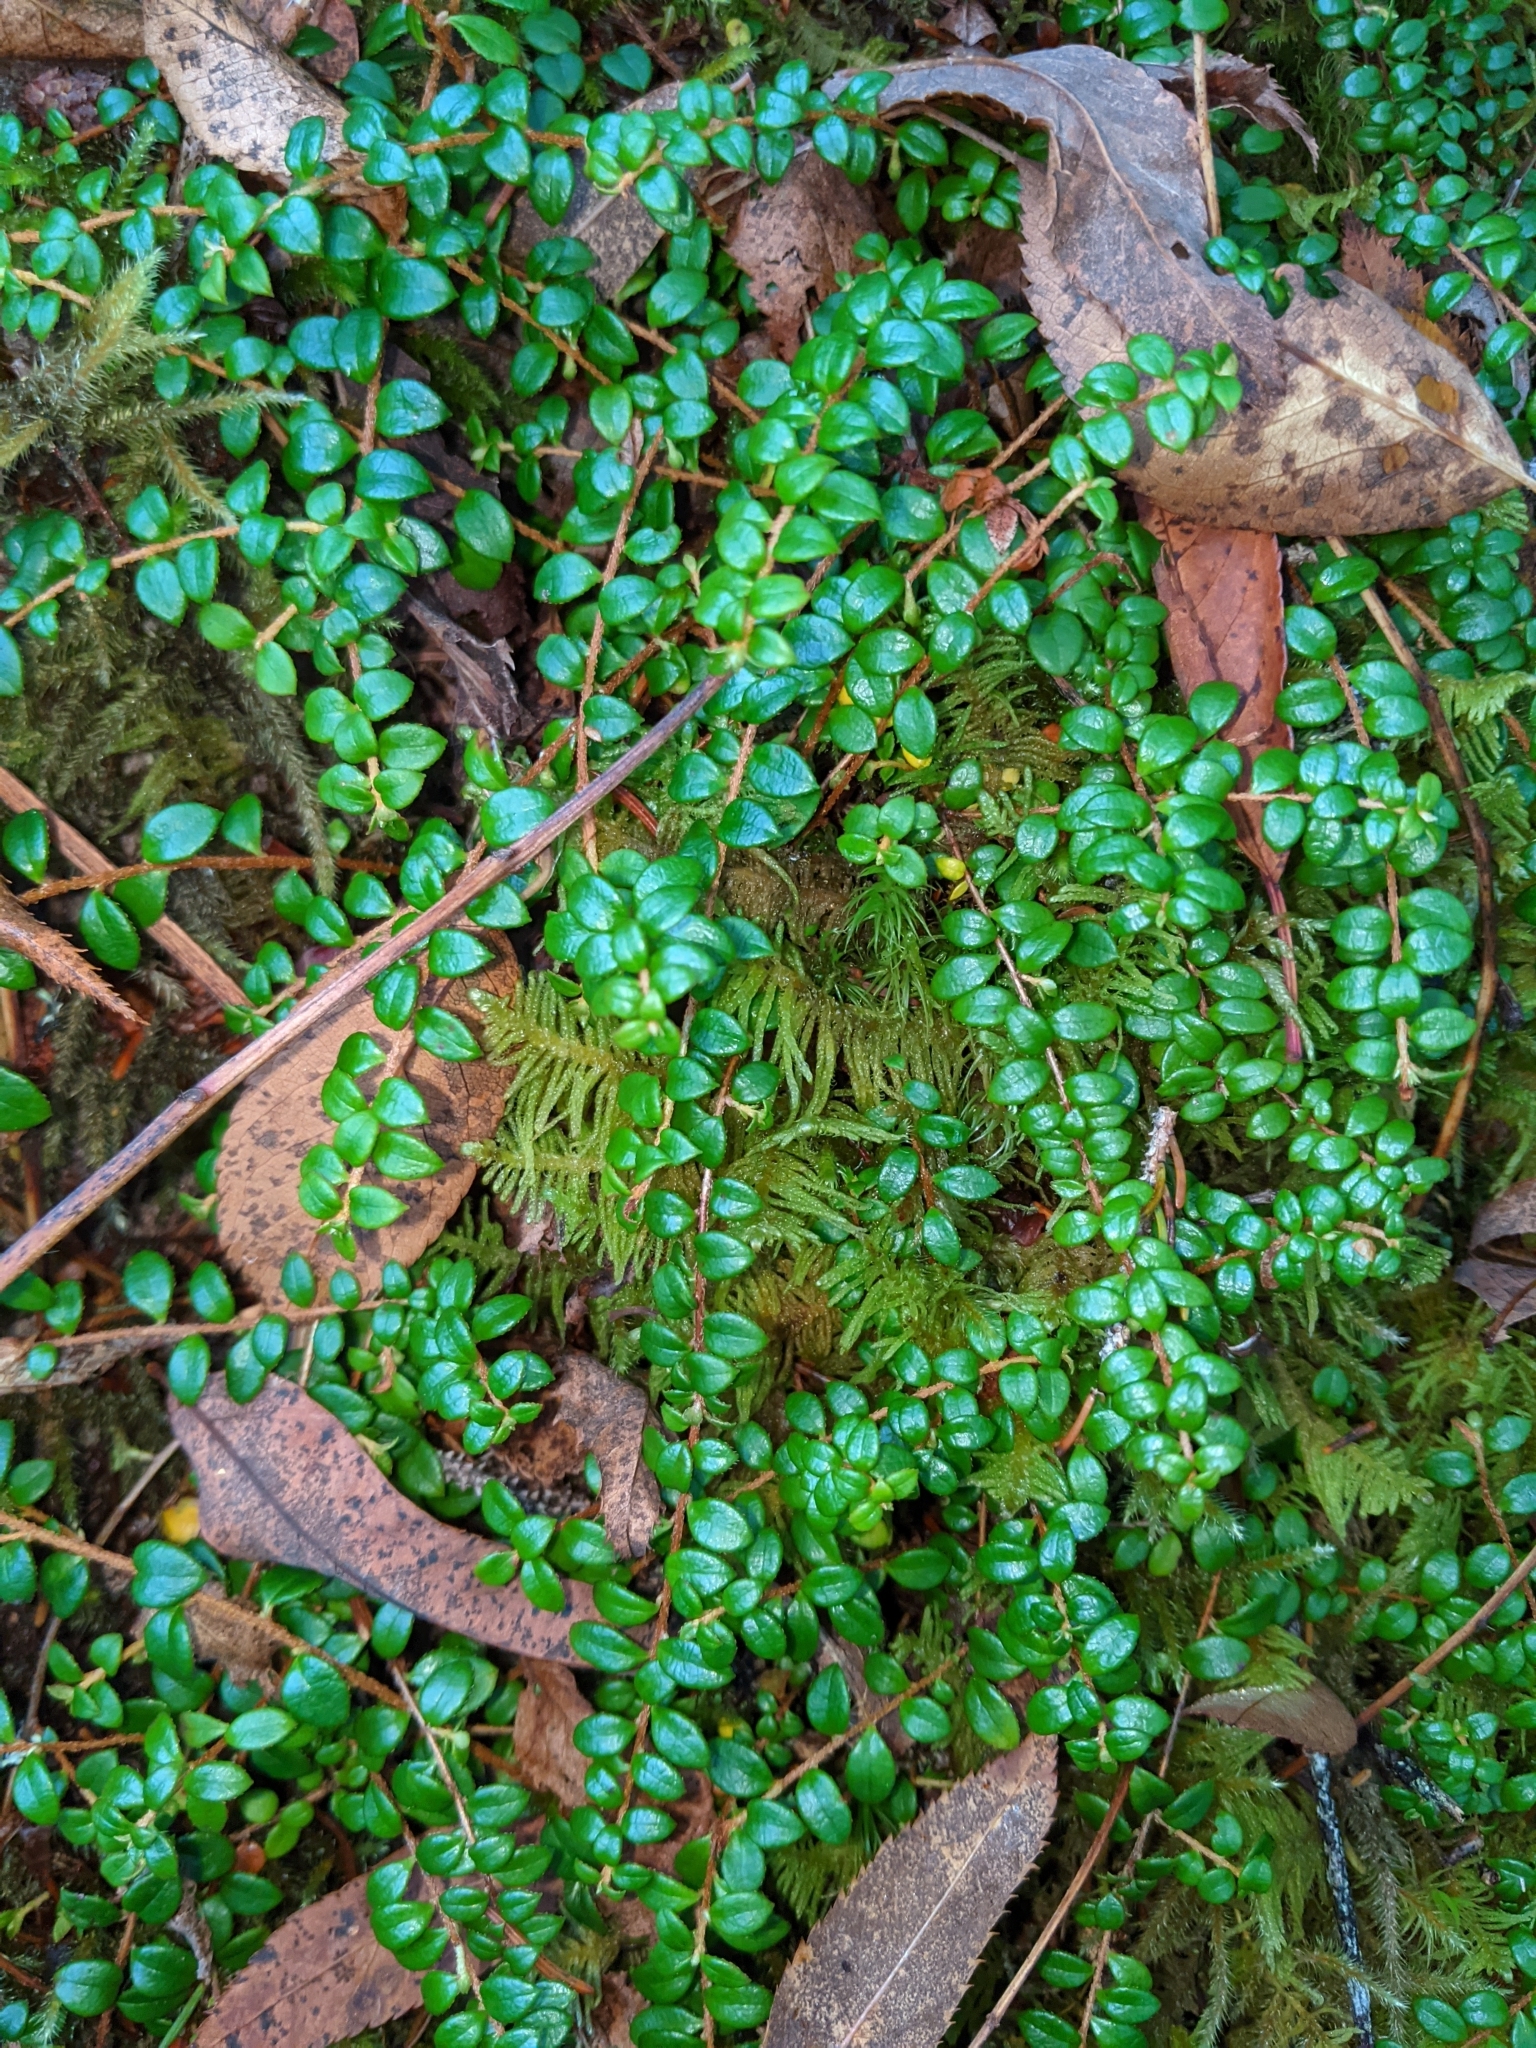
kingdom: Plantae
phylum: Tracheophyta
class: Magnoliopsida
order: Ericales
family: Ericaceae
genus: Gaultheria
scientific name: Gaultheria hispidula
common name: Cancer wintergreen
